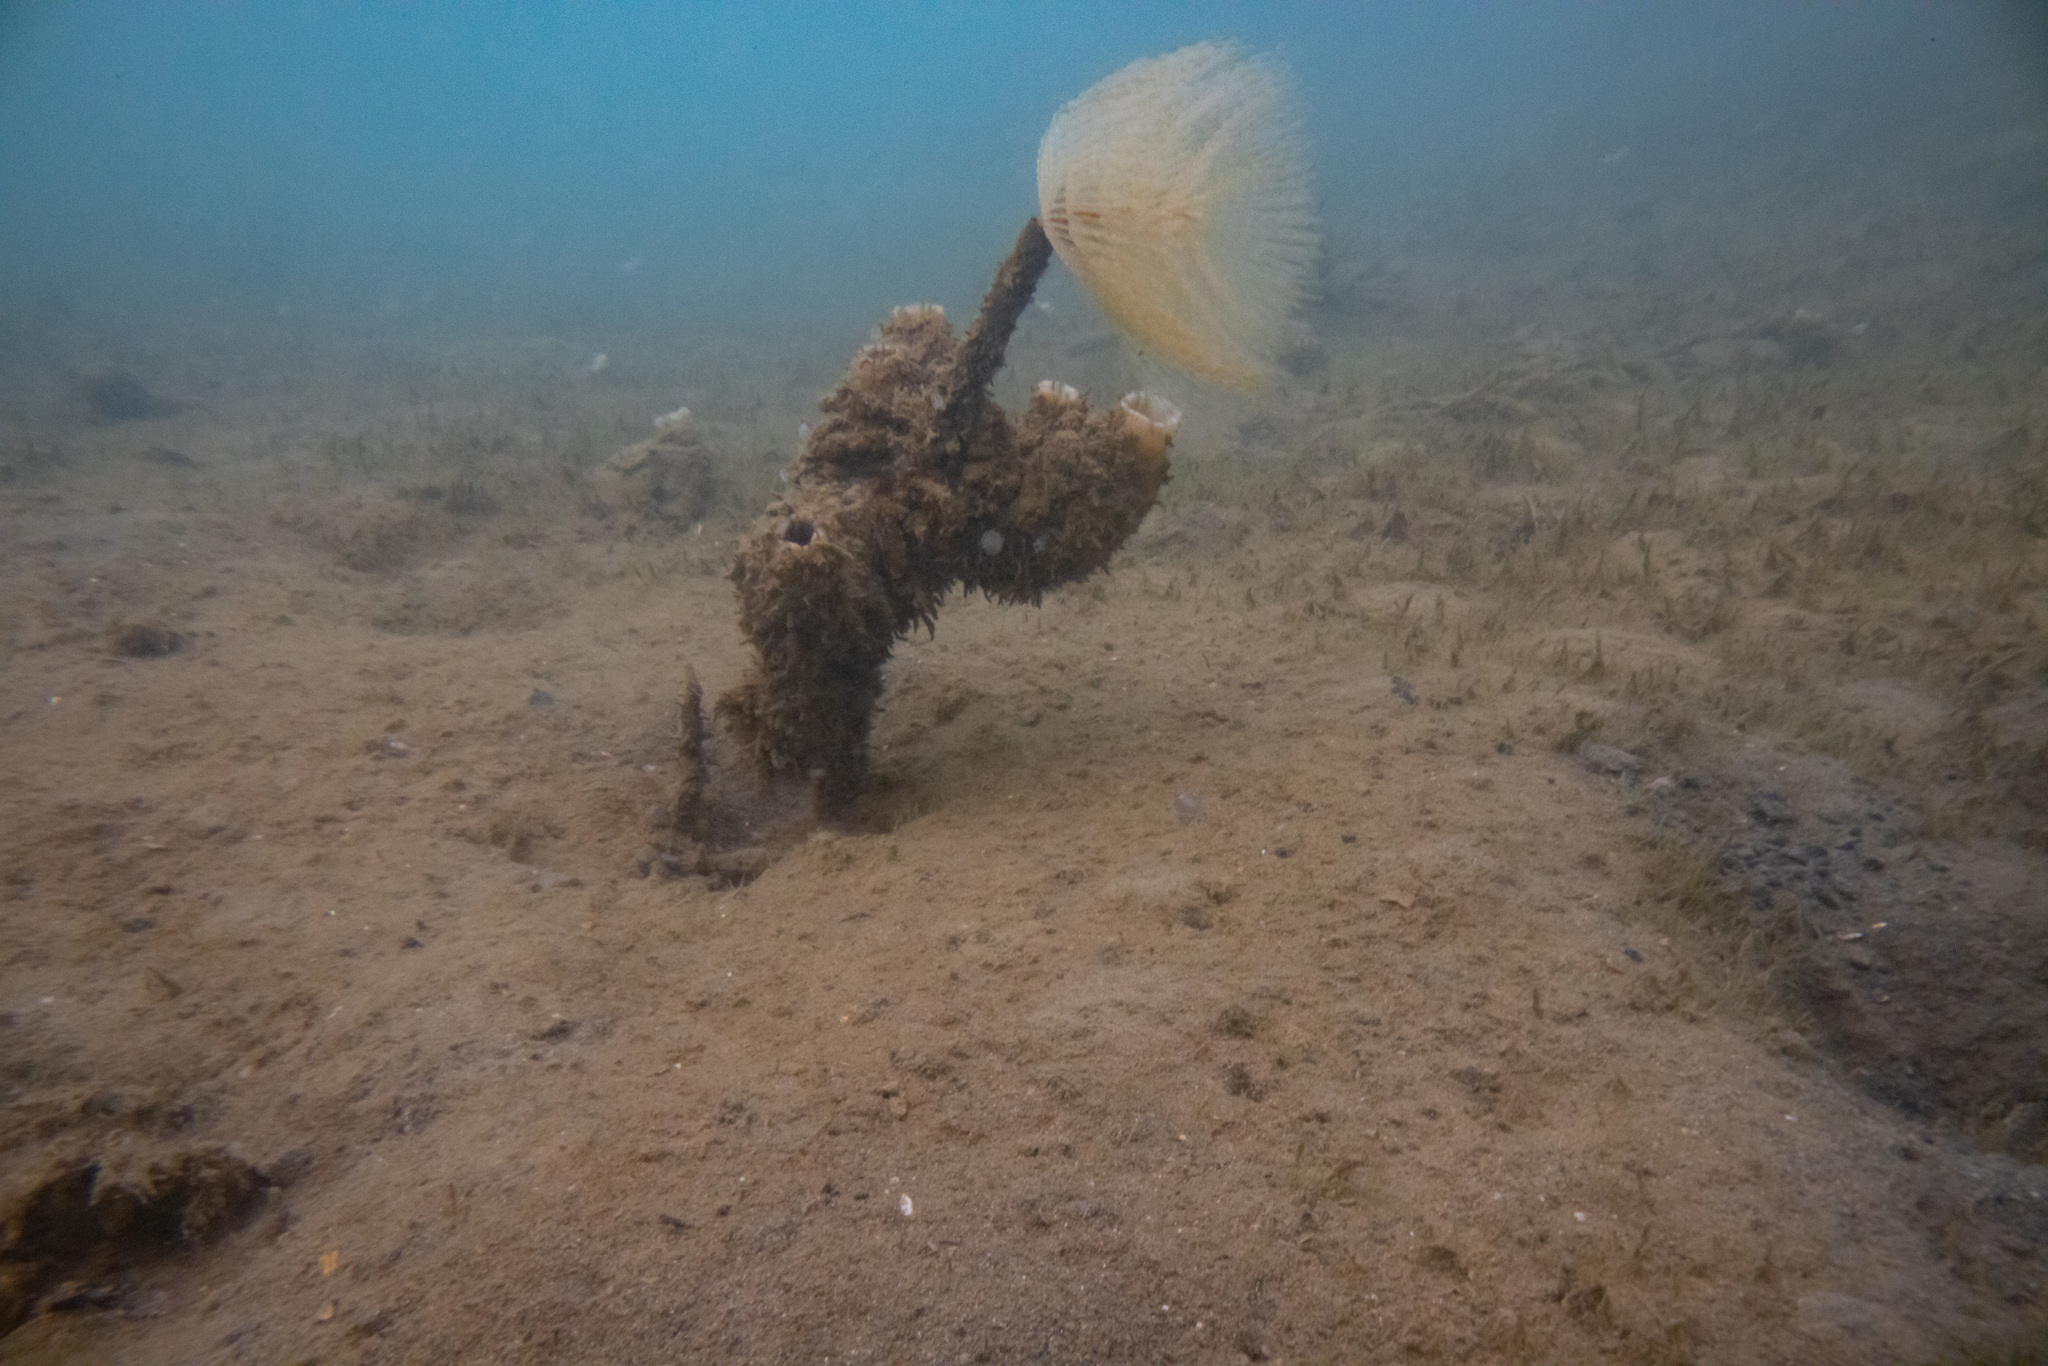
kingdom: Animalia
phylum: Annelida
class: Polychaeta
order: Sabellida
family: Sabellidae
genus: Sabella
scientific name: Sabella spallanzanii
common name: Feather duster worm
